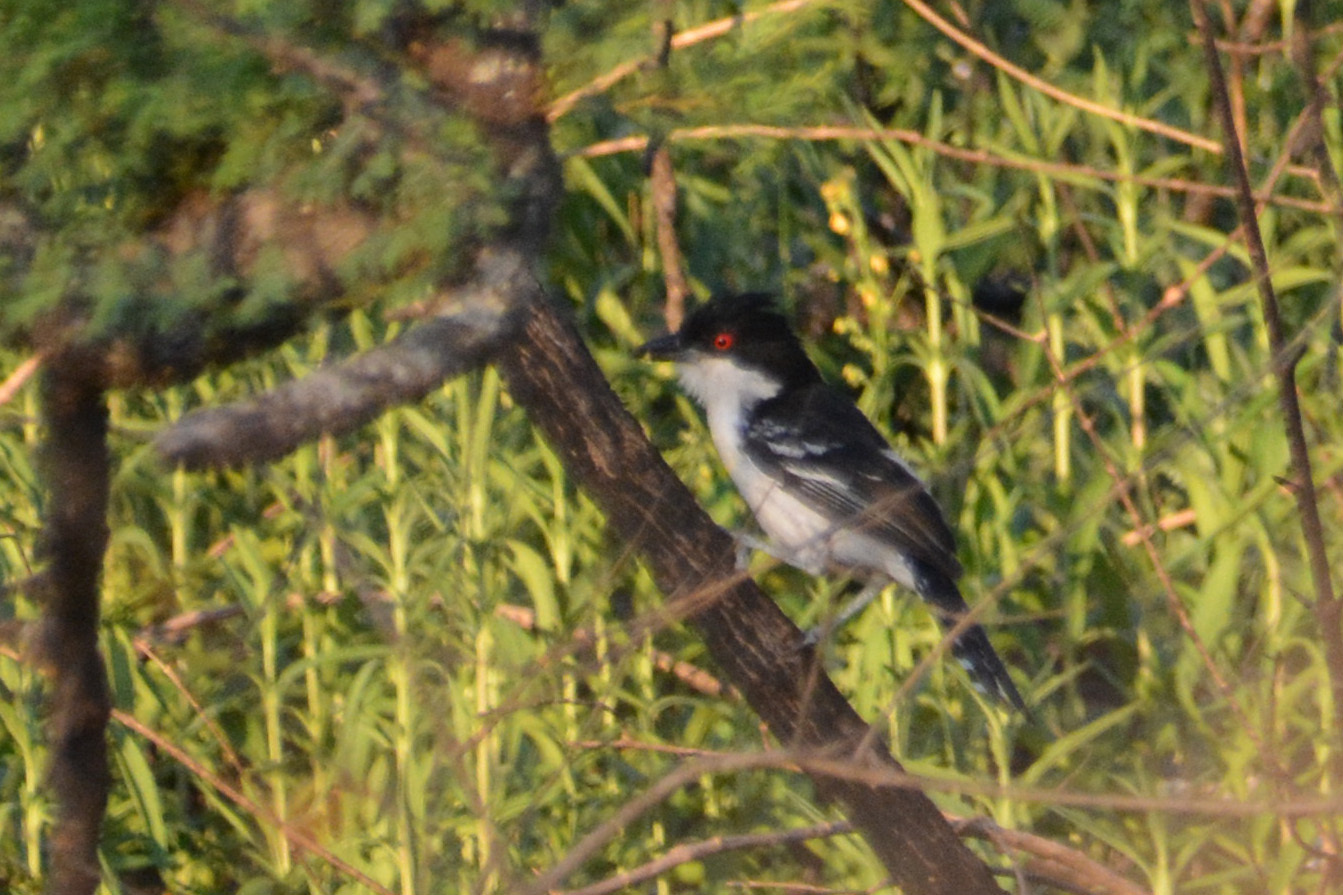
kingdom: Animalia
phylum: Chordata
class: Aves
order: Passeriformes
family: Thamnophilidae
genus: Taraba
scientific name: Taraba major
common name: Great antshrike
